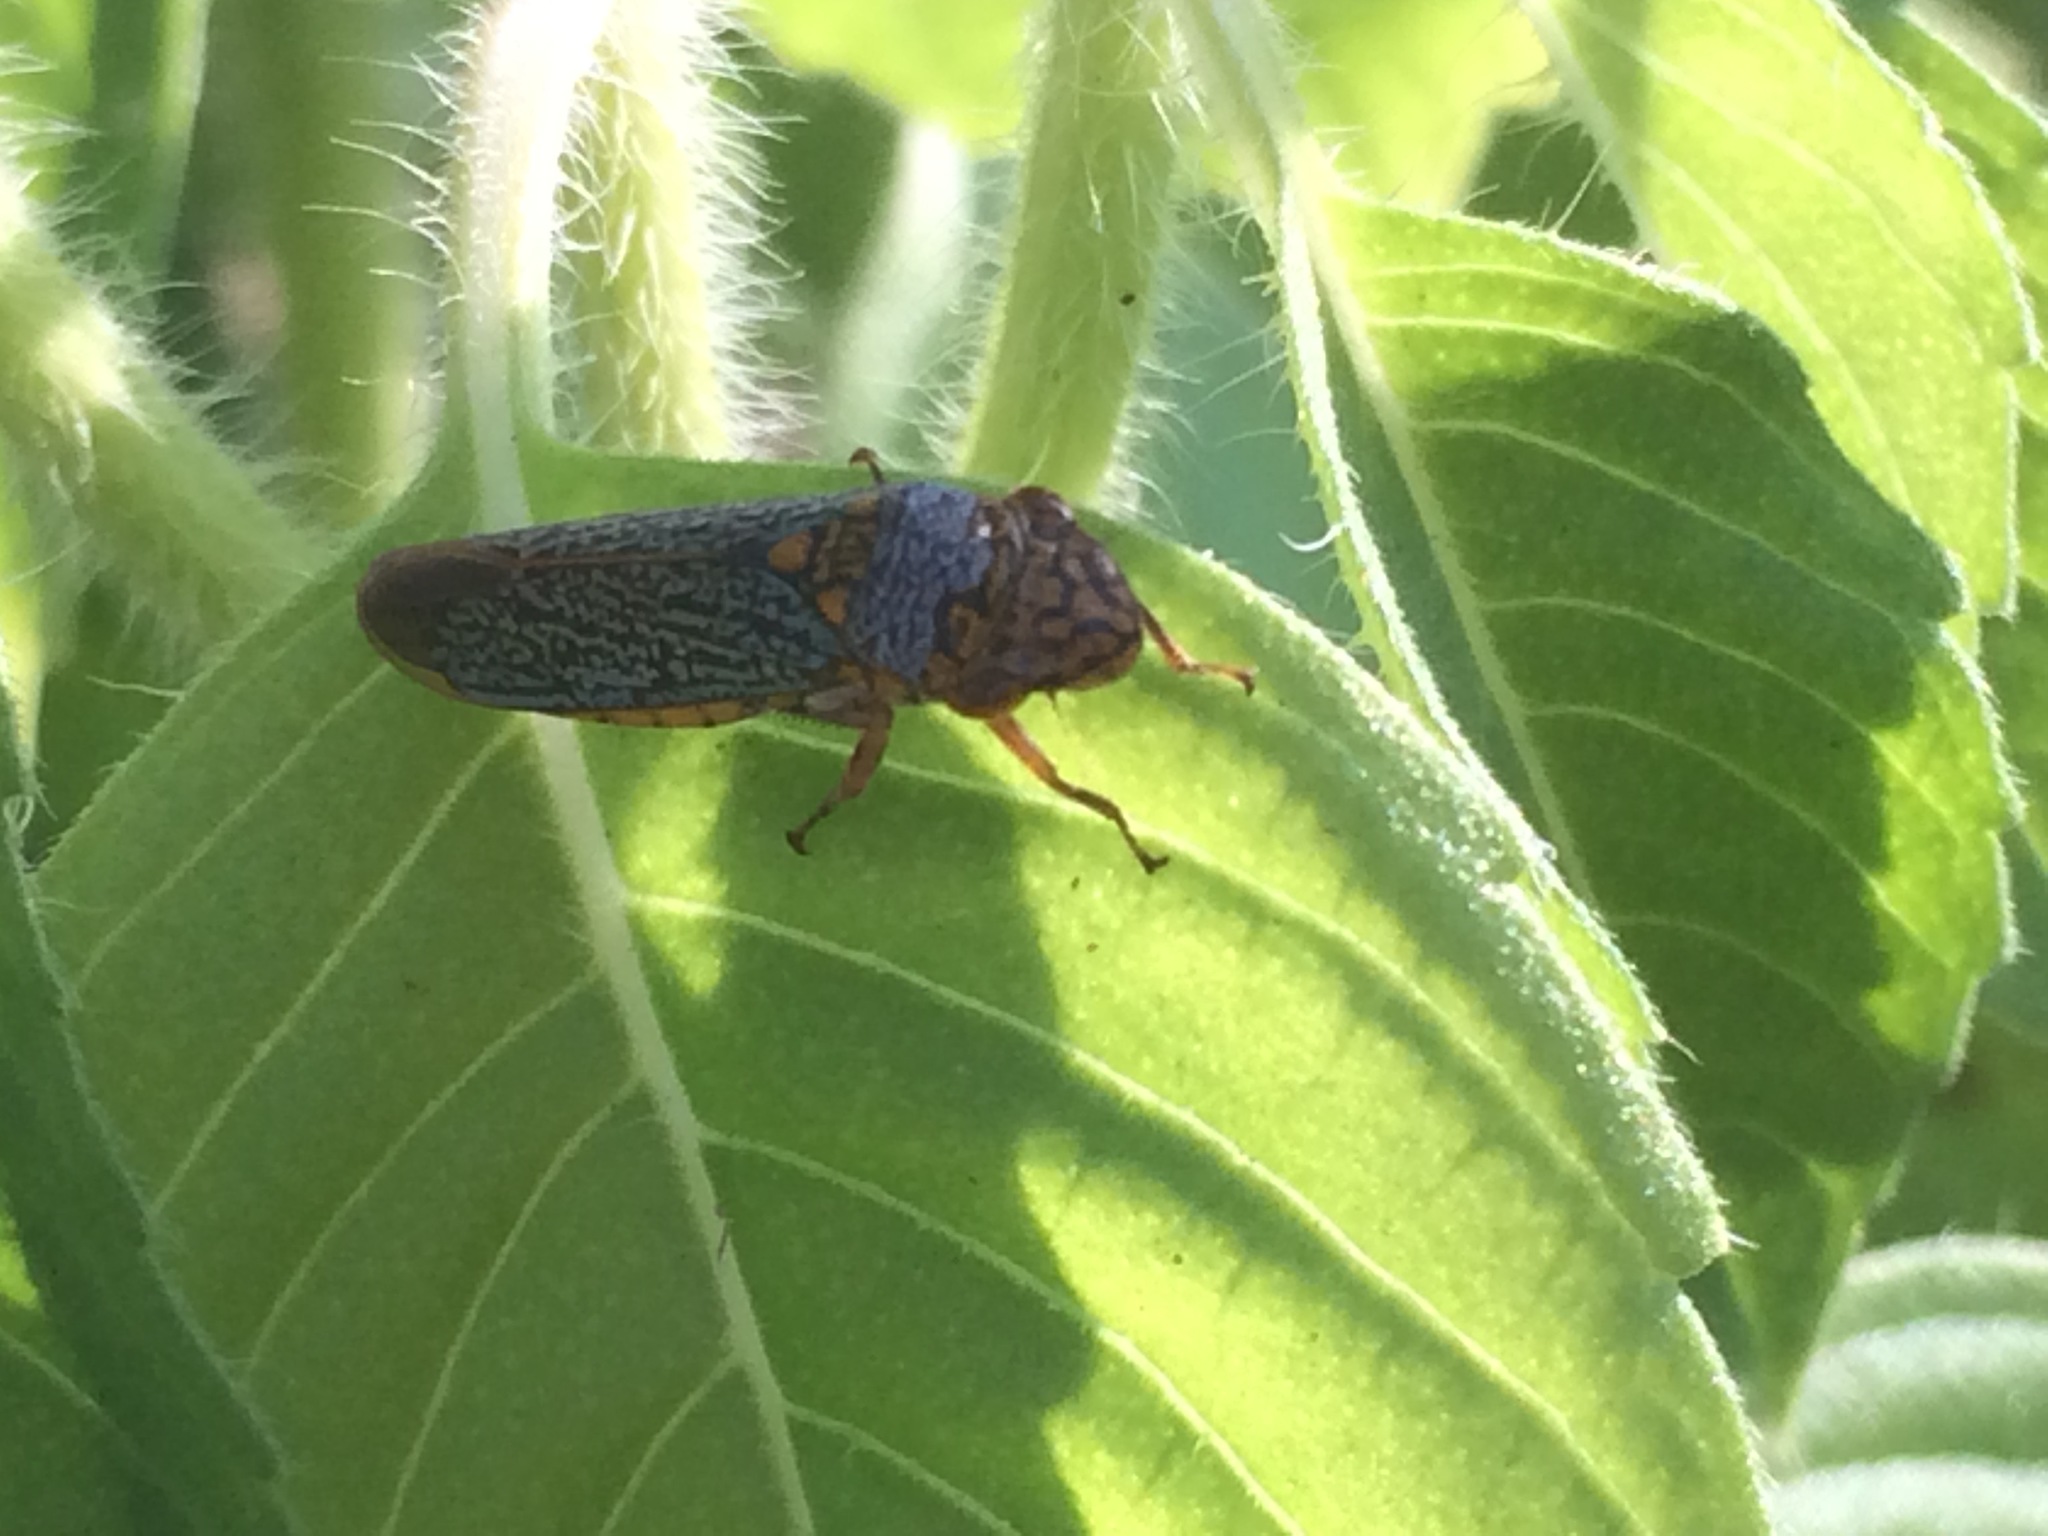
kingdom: Animalia
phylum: Arthropoda
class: Insecta
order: Hemiptera
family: Cicadellidae
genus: Oncometopia
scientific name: Oncometopia orbona
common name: Broad-headed sharpshooter
